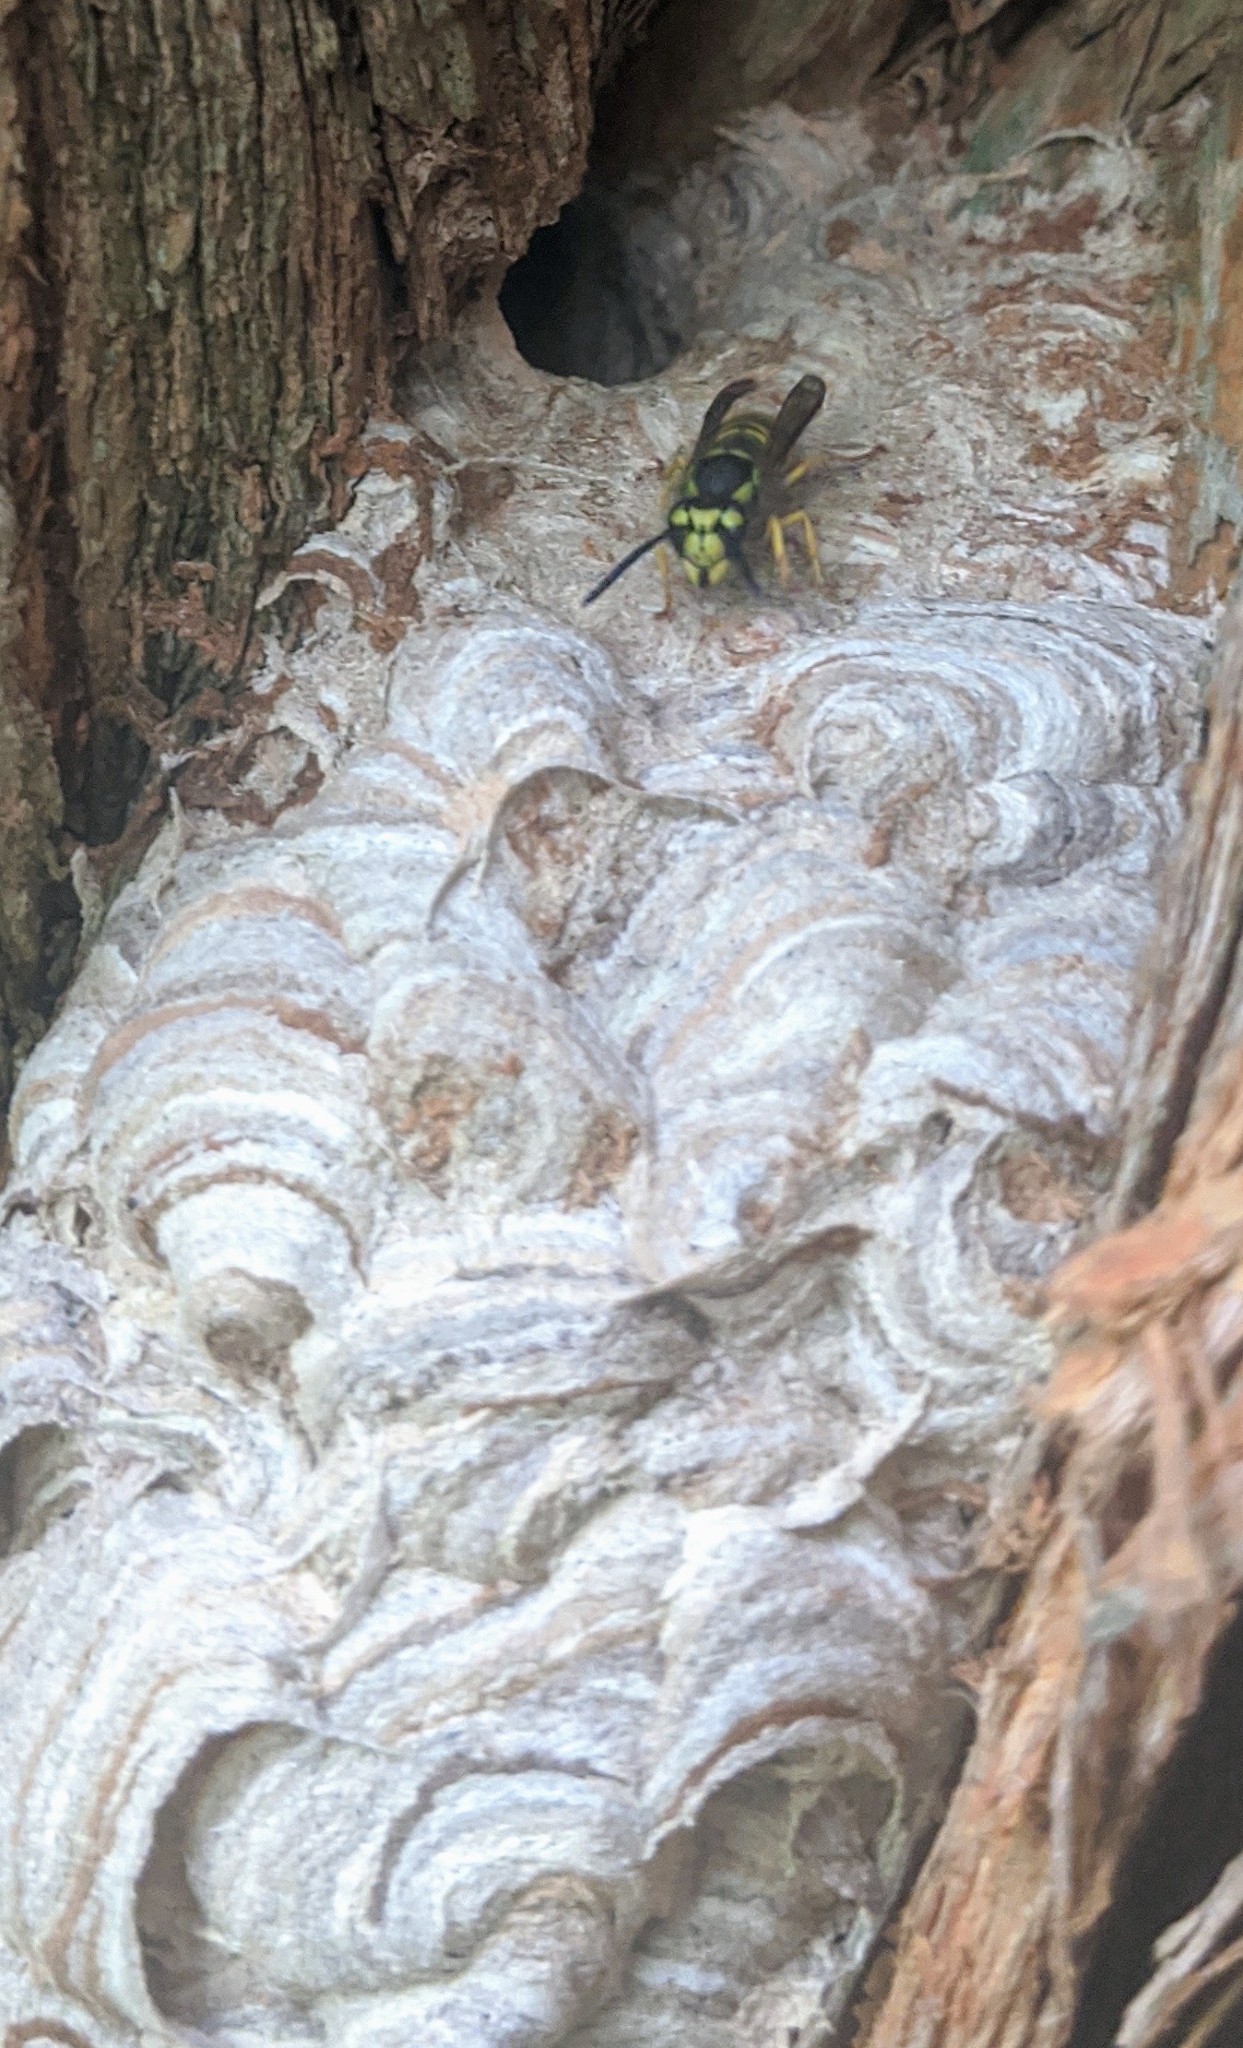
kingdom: Animalia
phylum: Arthropoda
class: Insecta
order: Hymenoptera
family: Vespidae
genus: Vespula
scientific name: Vespula maculifrons
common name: Eastern yellowjacket
